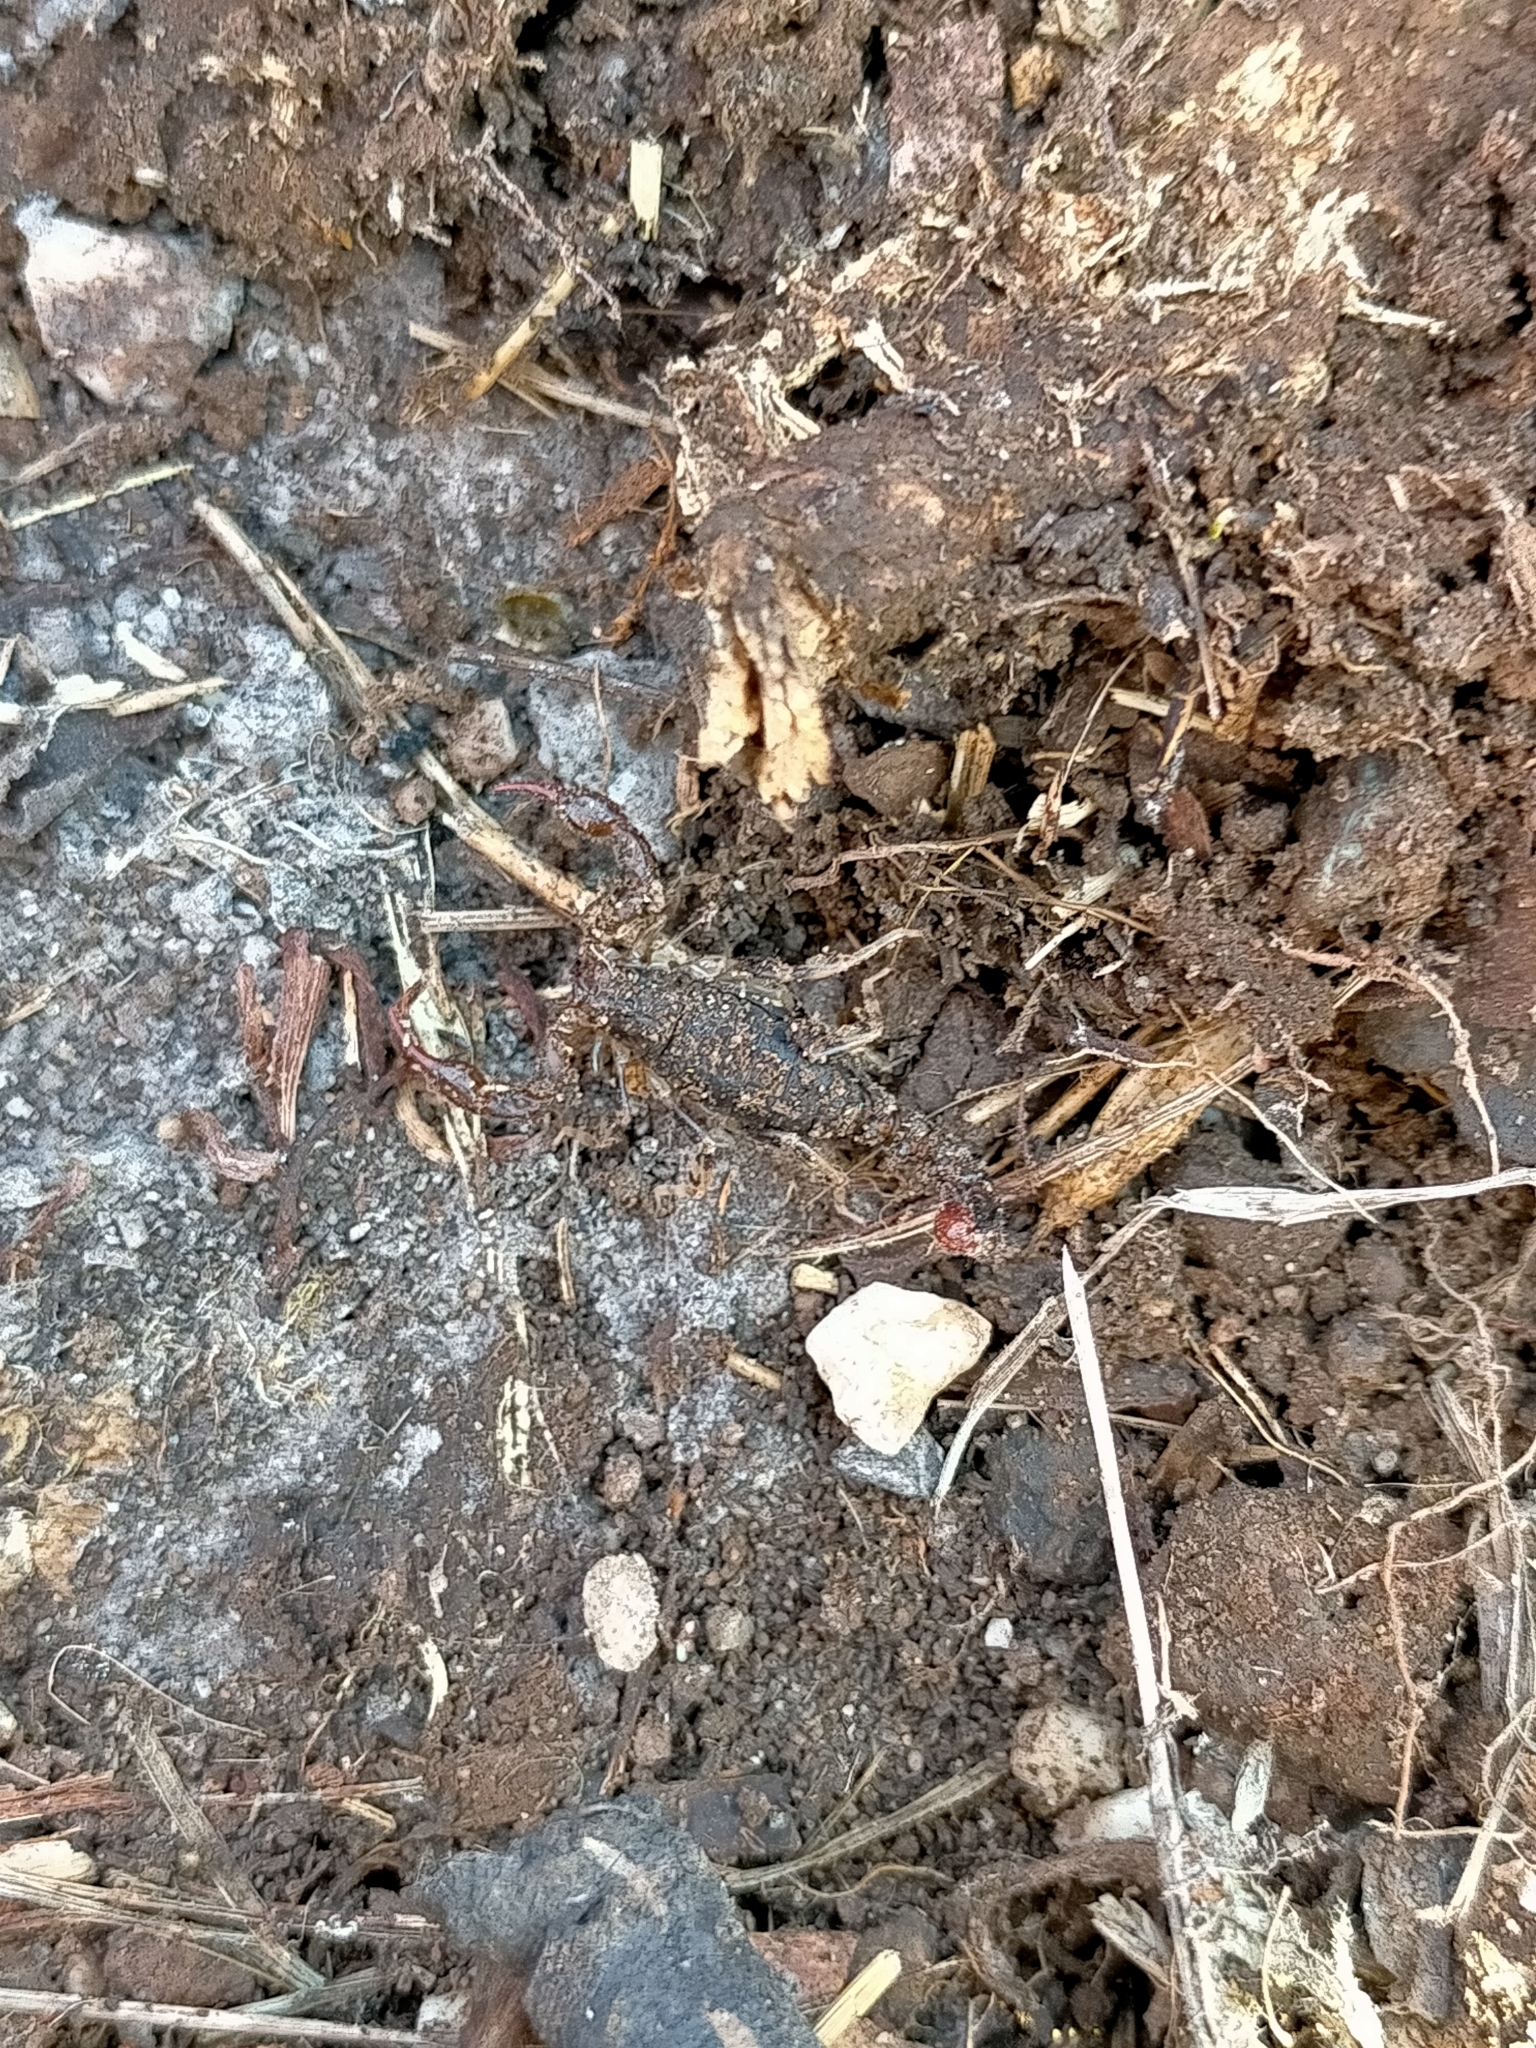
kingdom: Animalia
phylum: Arthropoda
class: Arachnida
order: Scorpiones
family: Bothriuridae
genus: Cercophonius
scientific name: Cercophonius squama
